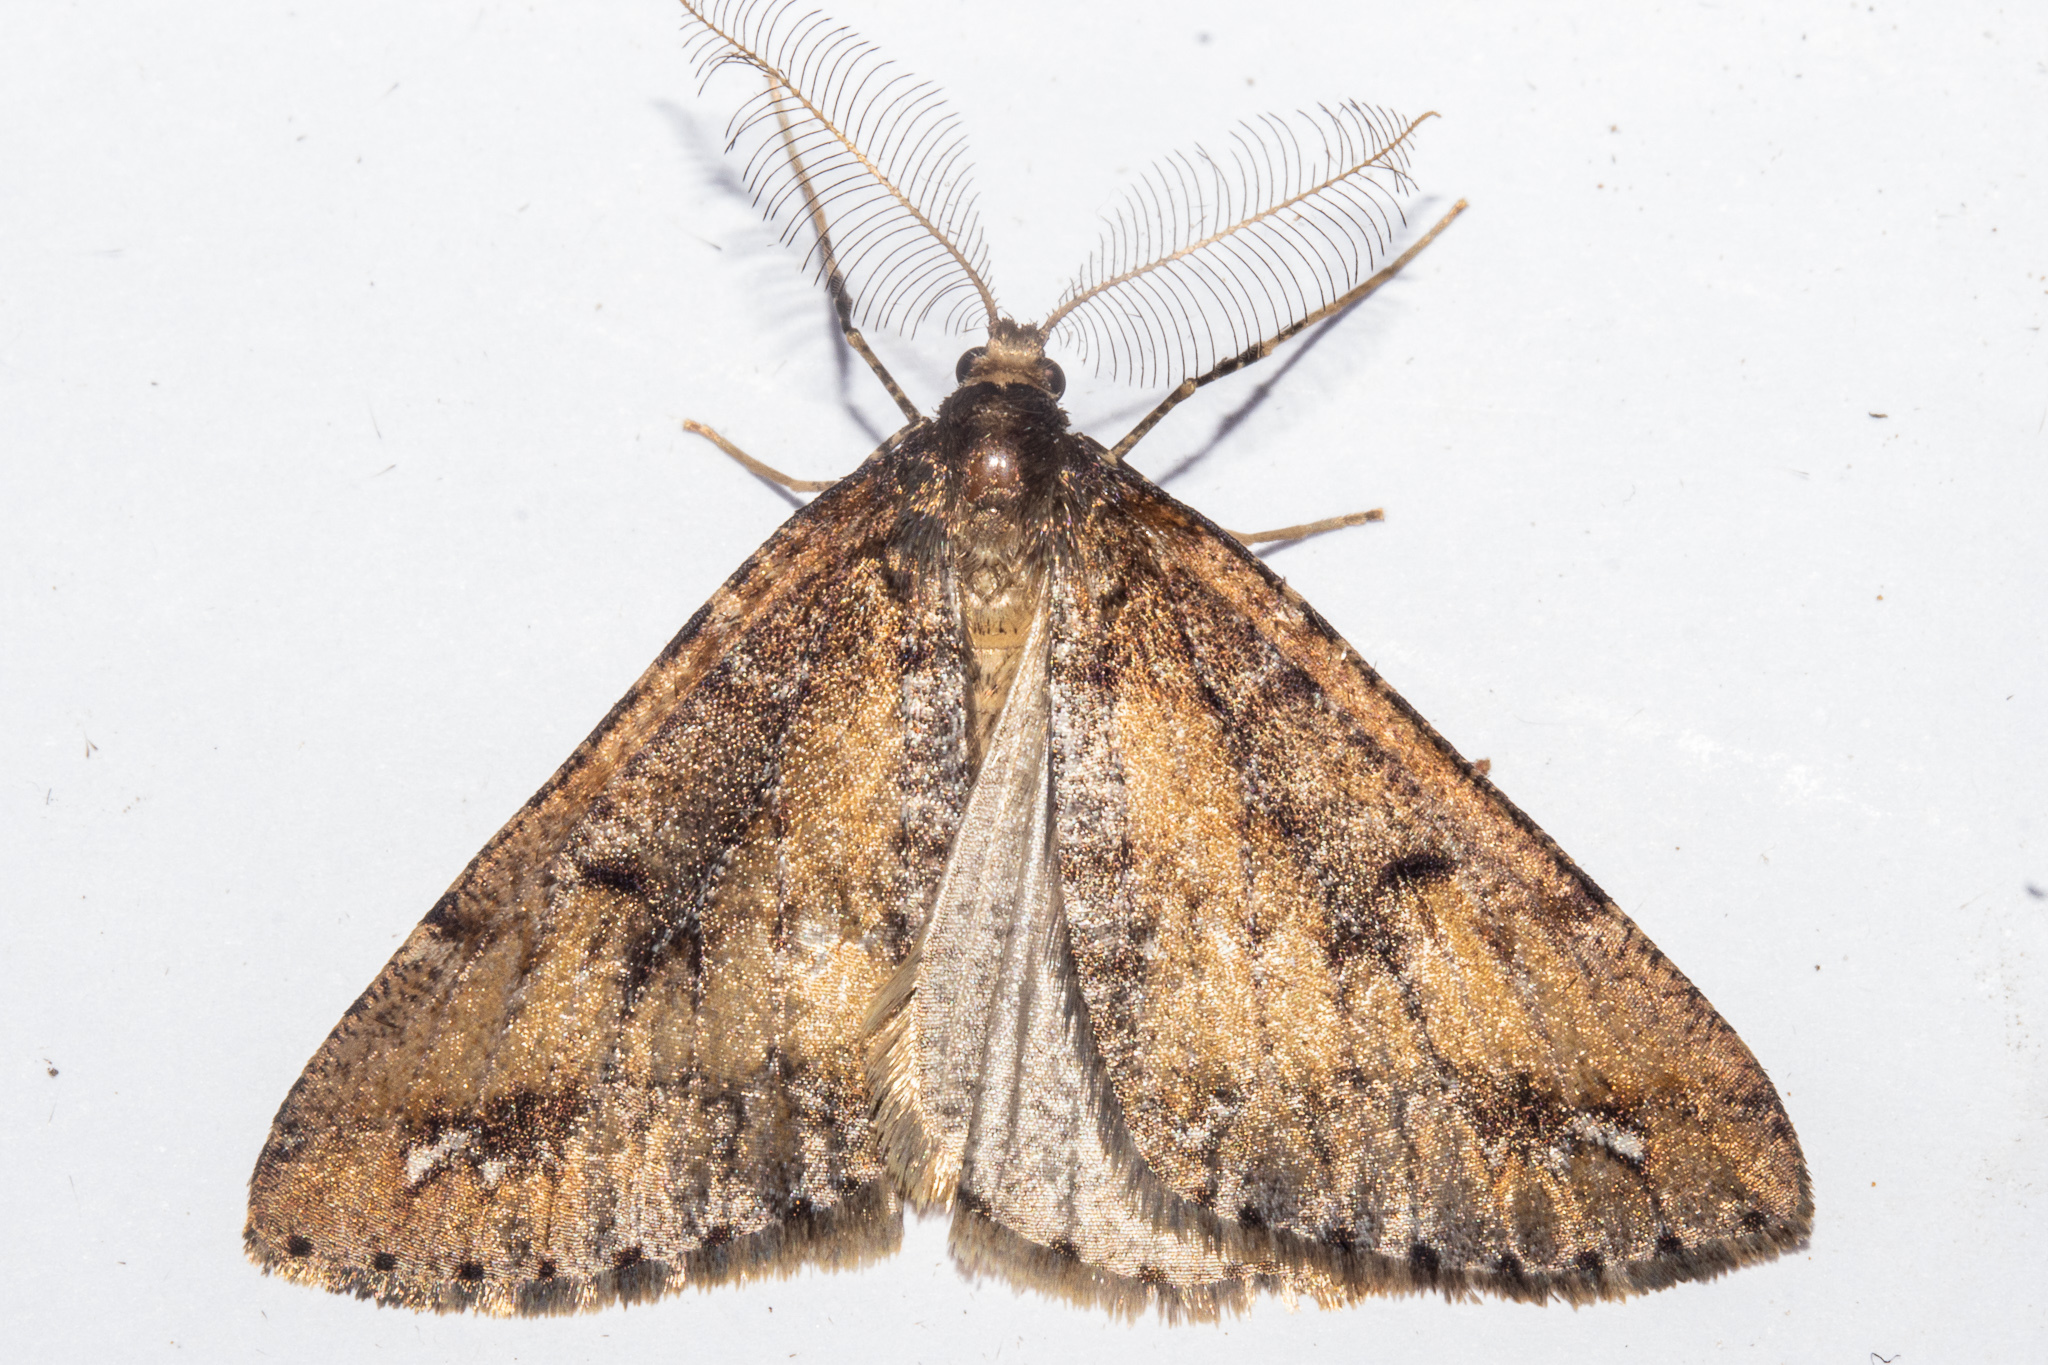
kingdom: Animalia
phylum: Arthropoda
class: Insecta
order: Lepidoptera
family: Geometridae
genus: Pseudocoremia
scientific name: Pseudocoremia berylia
